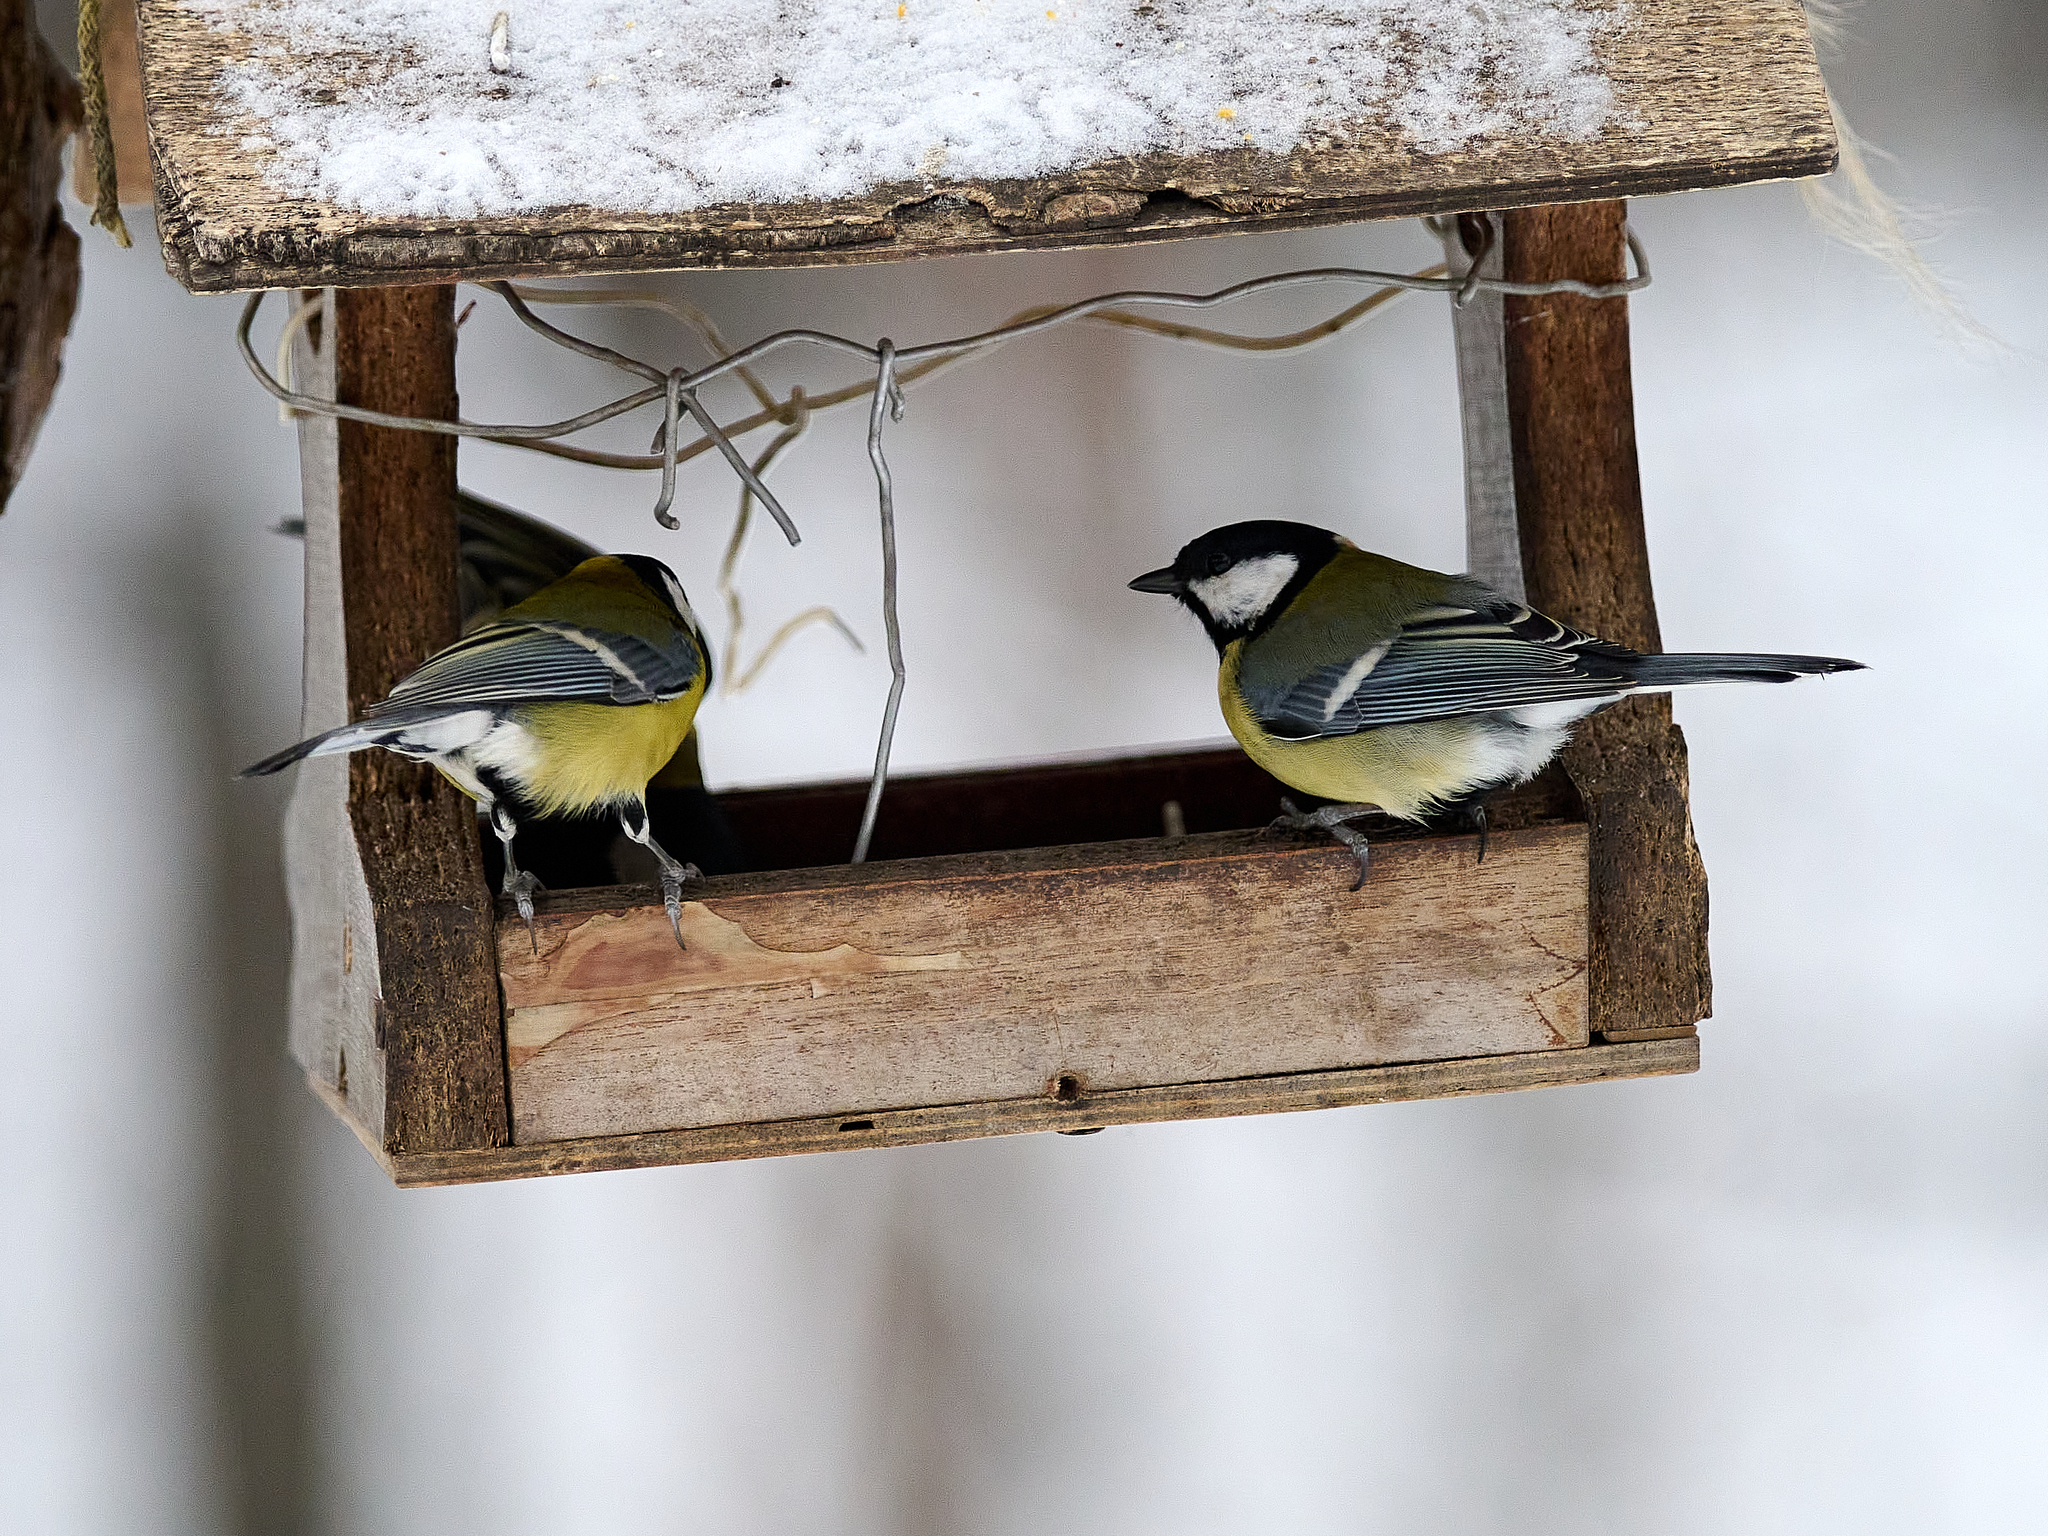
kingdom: Animalia
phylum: Chordata
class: Aves
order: Passeriformes
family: Paridae
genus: Parus
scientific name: Parus major
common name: Great tit
